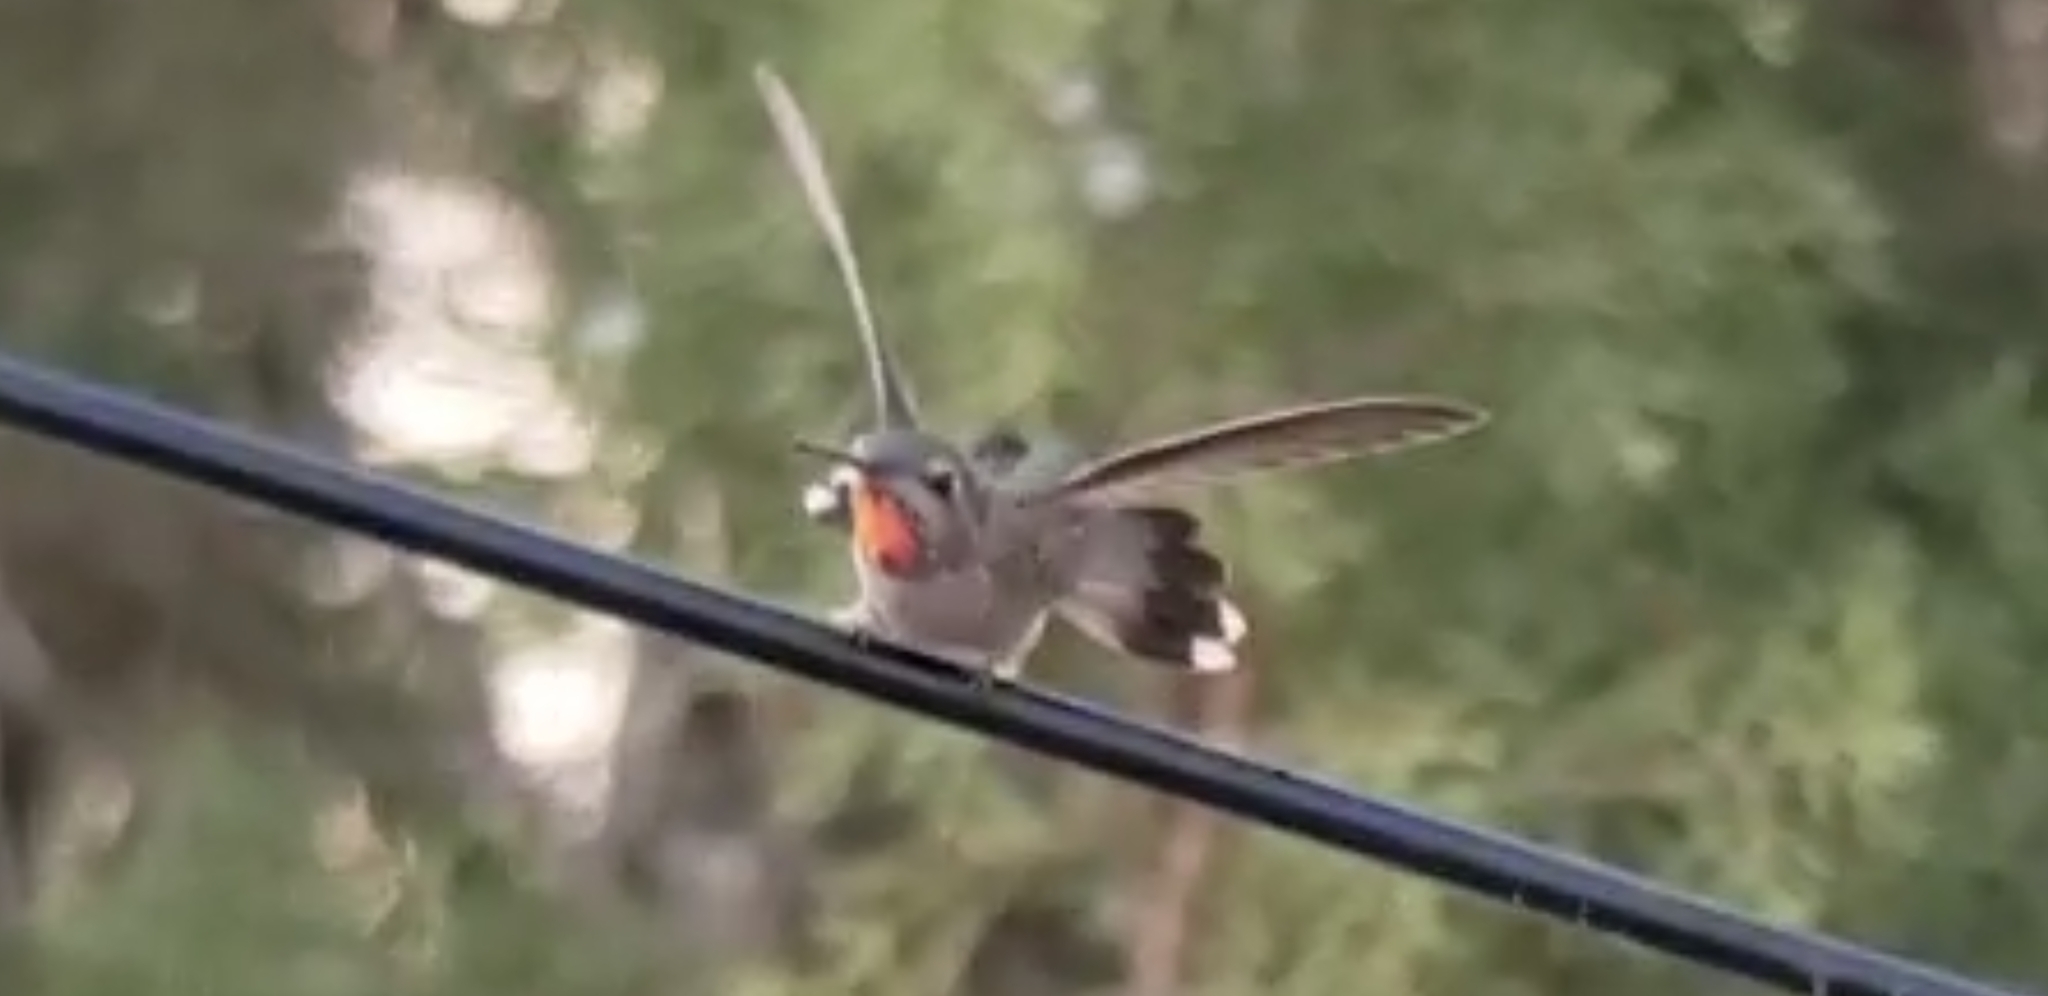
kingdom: Animalia
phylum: Chordata
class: Aves
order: Apodiformes
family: Trochilidae
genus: Calypte
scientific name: Calypte anna
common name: Anna's hummingbird
